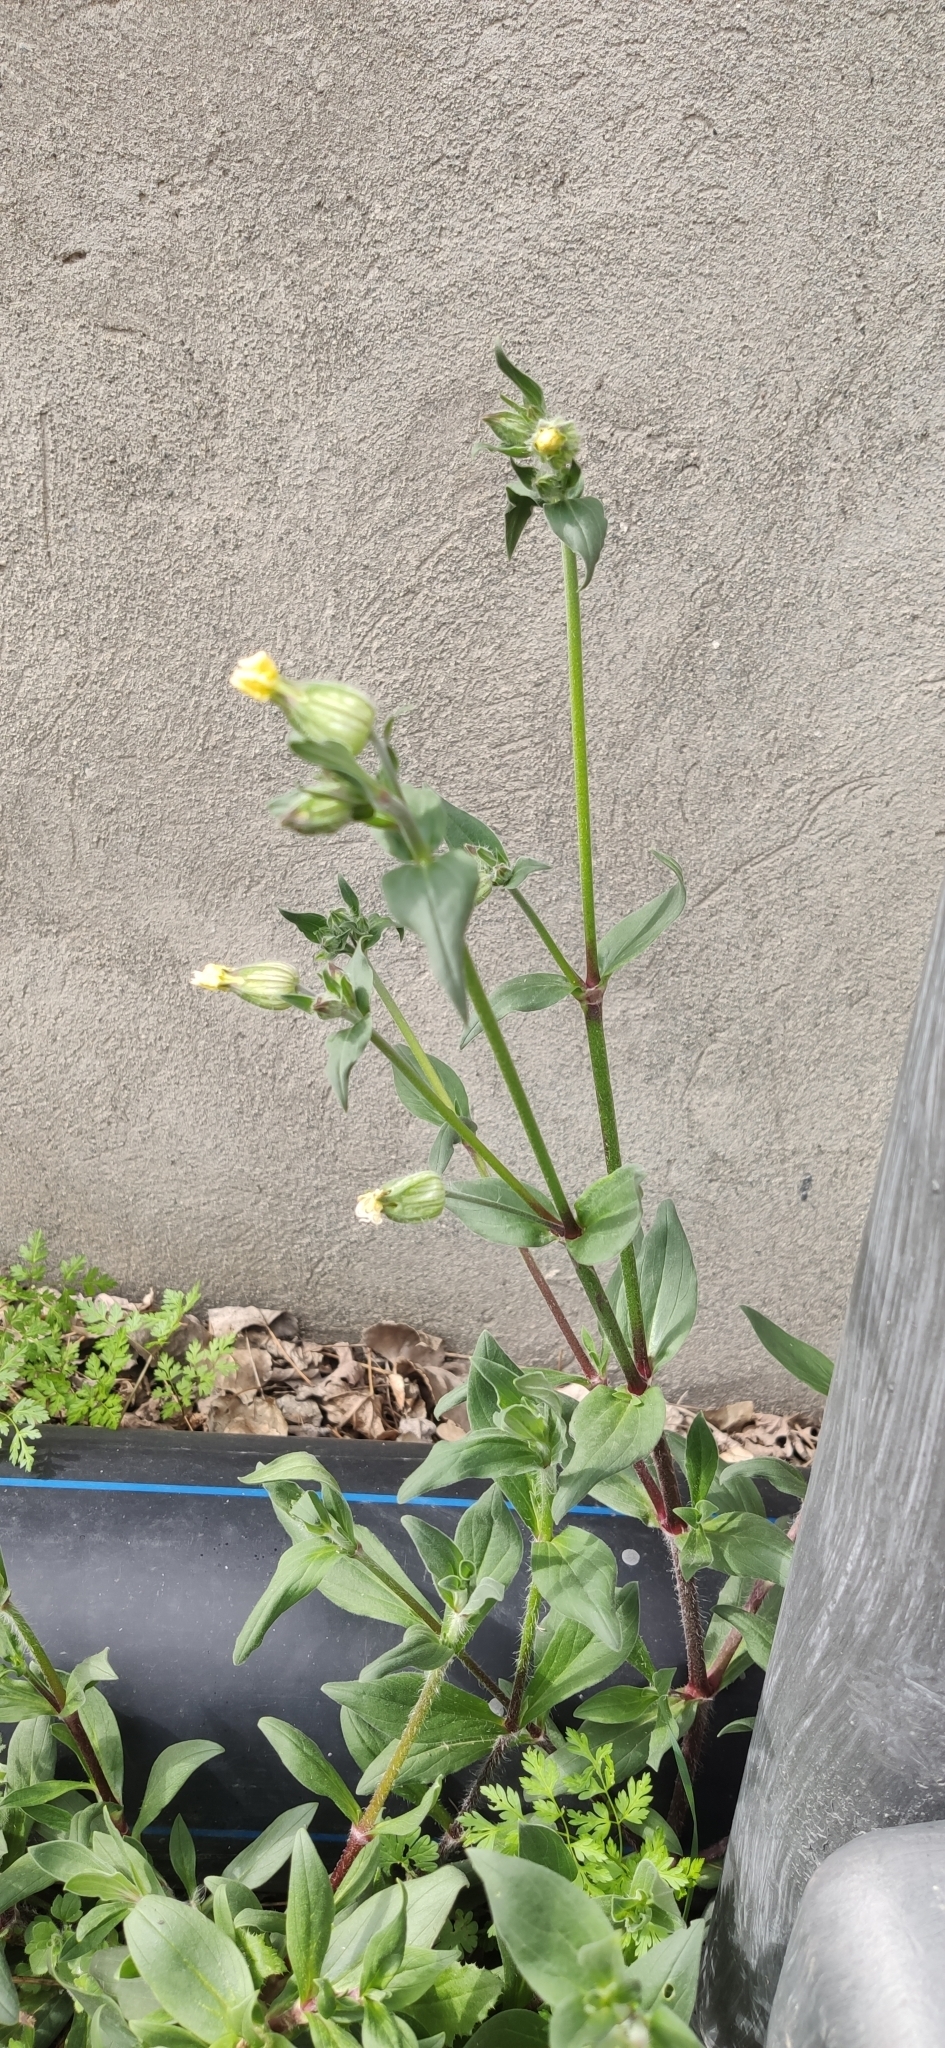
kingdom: Plantae
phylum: Tracheophyta
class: Magnoliopsida
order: Caryophyllales
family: Caryophyllaceae
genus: Silene
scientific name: Silene latifolia
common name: White campion
